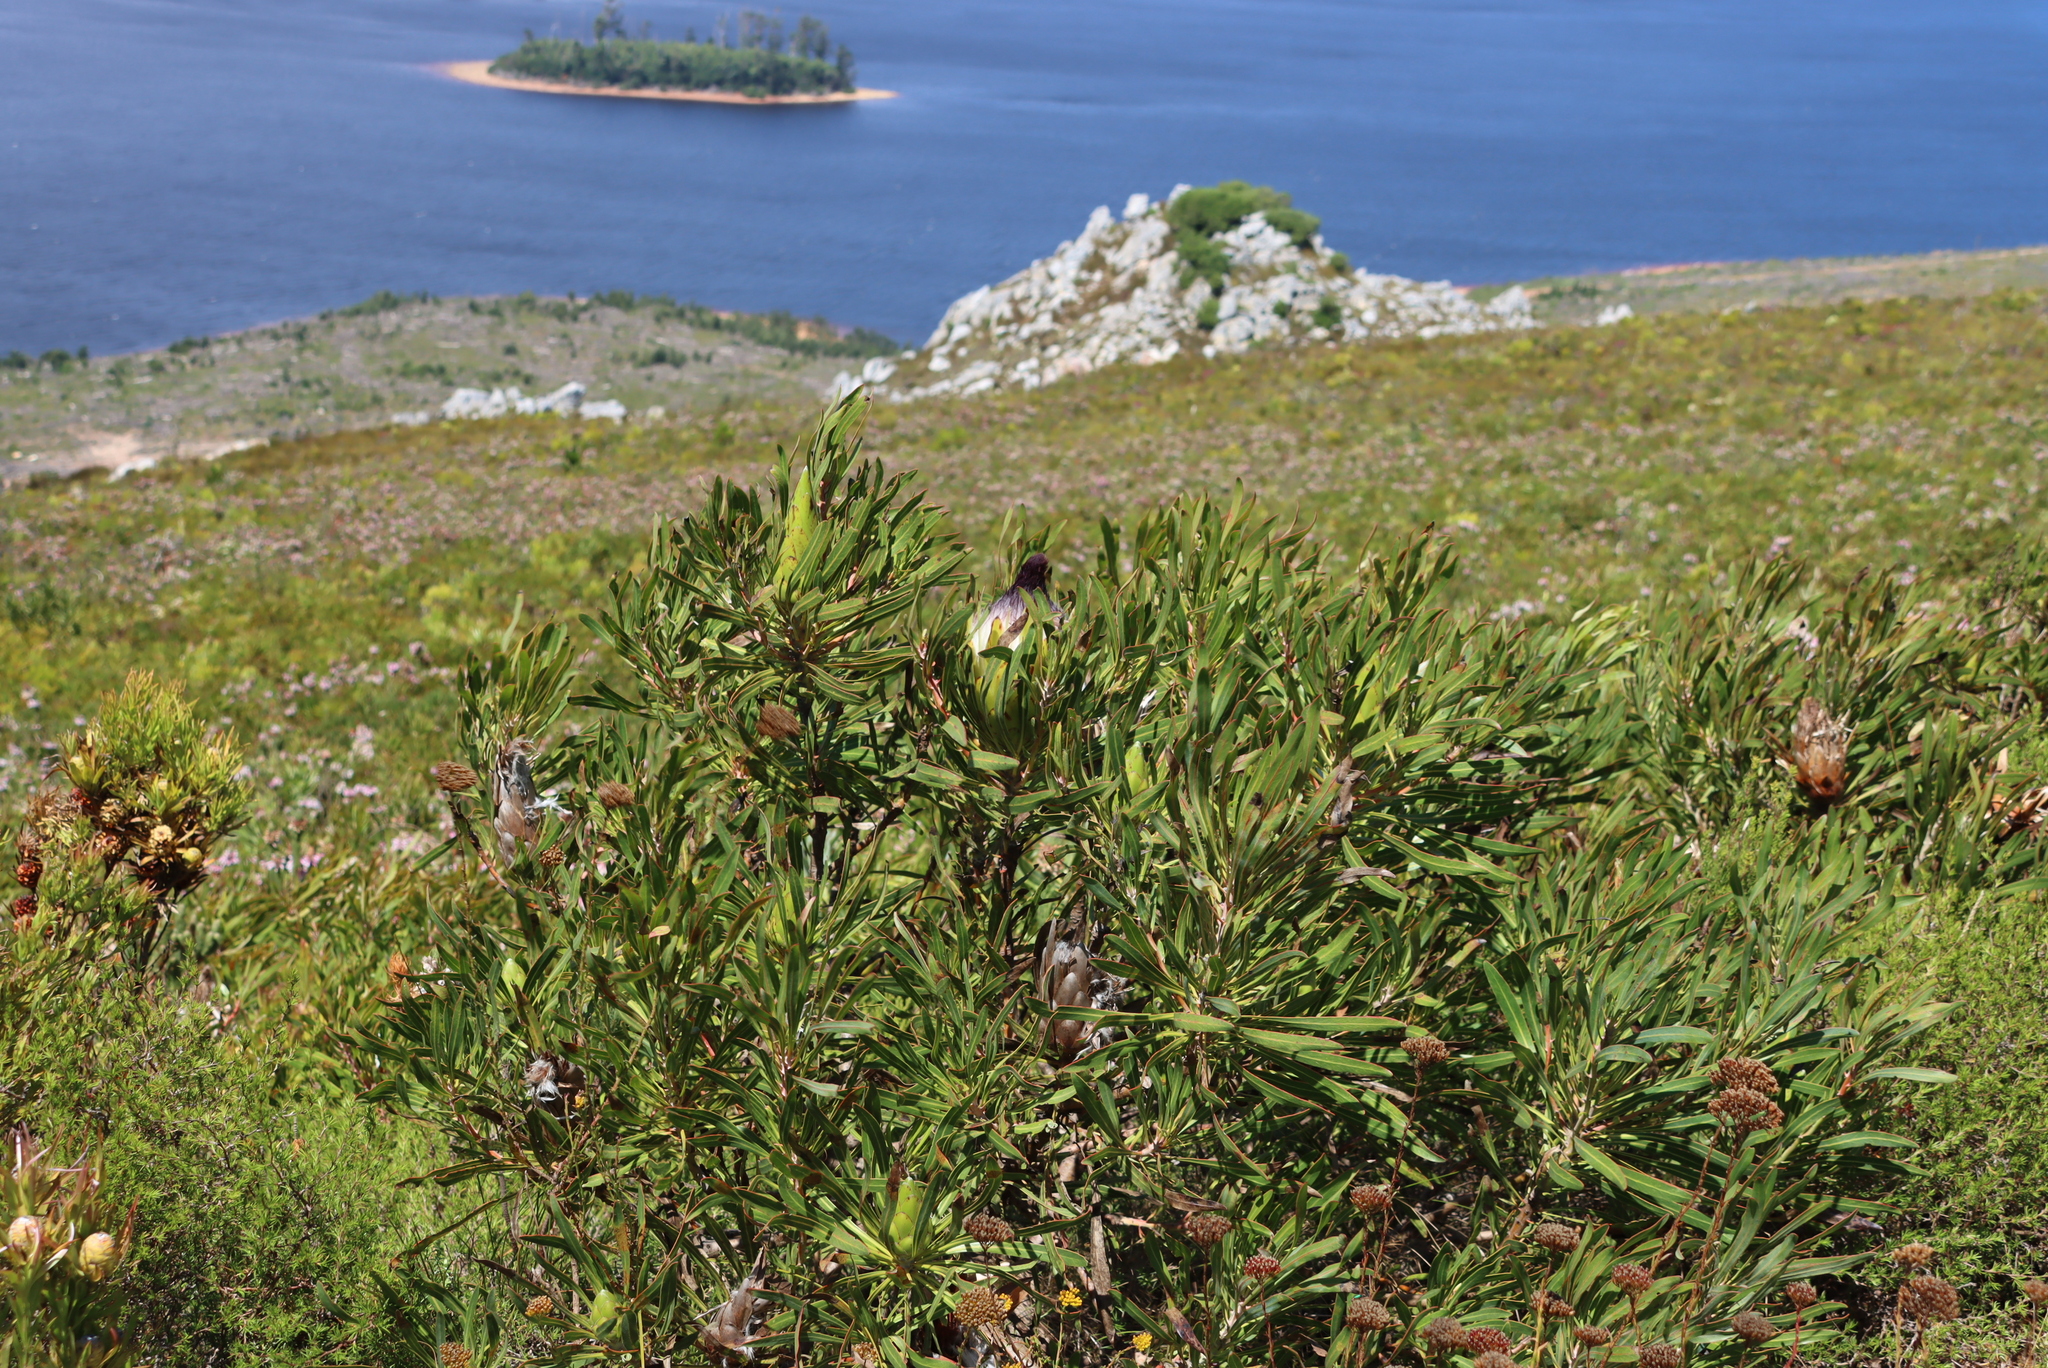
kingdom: Plantae
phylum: Tracheophyta
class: Magnoliopsida
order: Proteales
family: Proteaceae
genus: Protea
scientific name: Protea longifolia
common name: Long-leaf sugarbush
